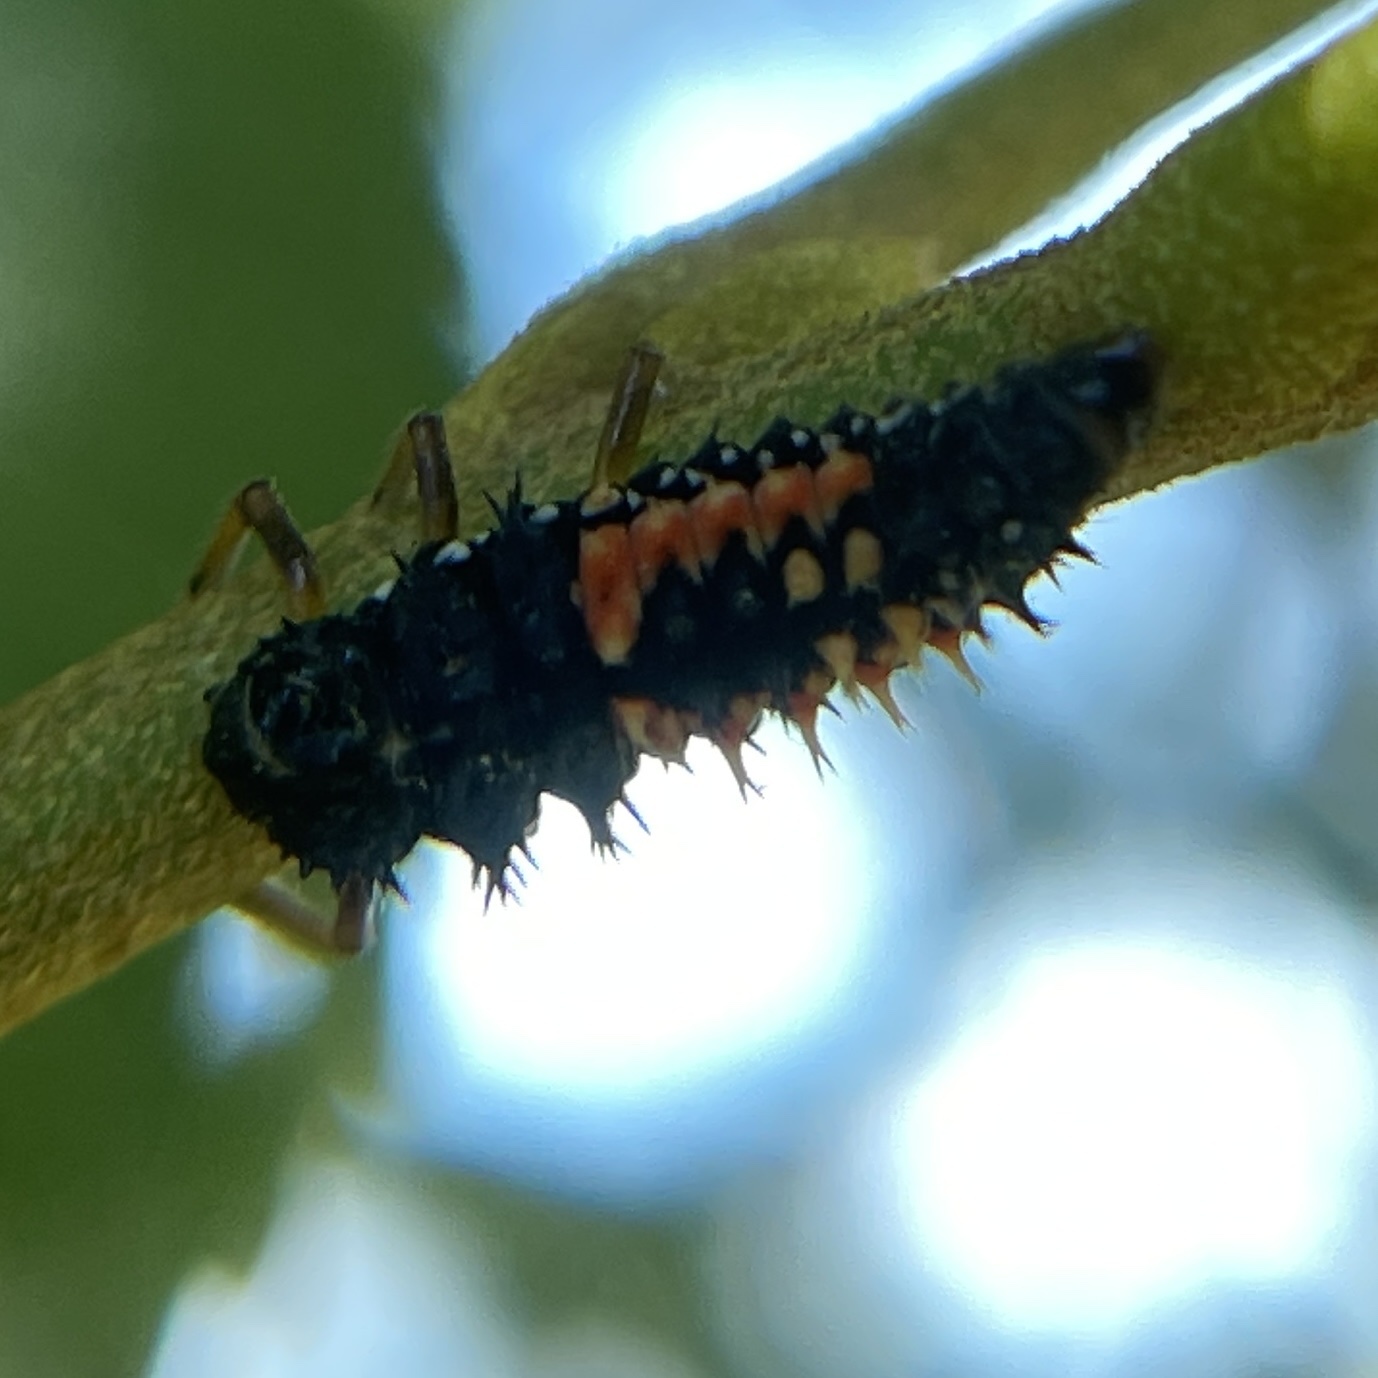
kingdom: Animalia
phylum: Arthropoda
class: Insecta
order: Coleoptera
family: Coccinellidae
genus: Harmonia
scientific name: Harmonia axyridis
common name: Harlequin ladybird
